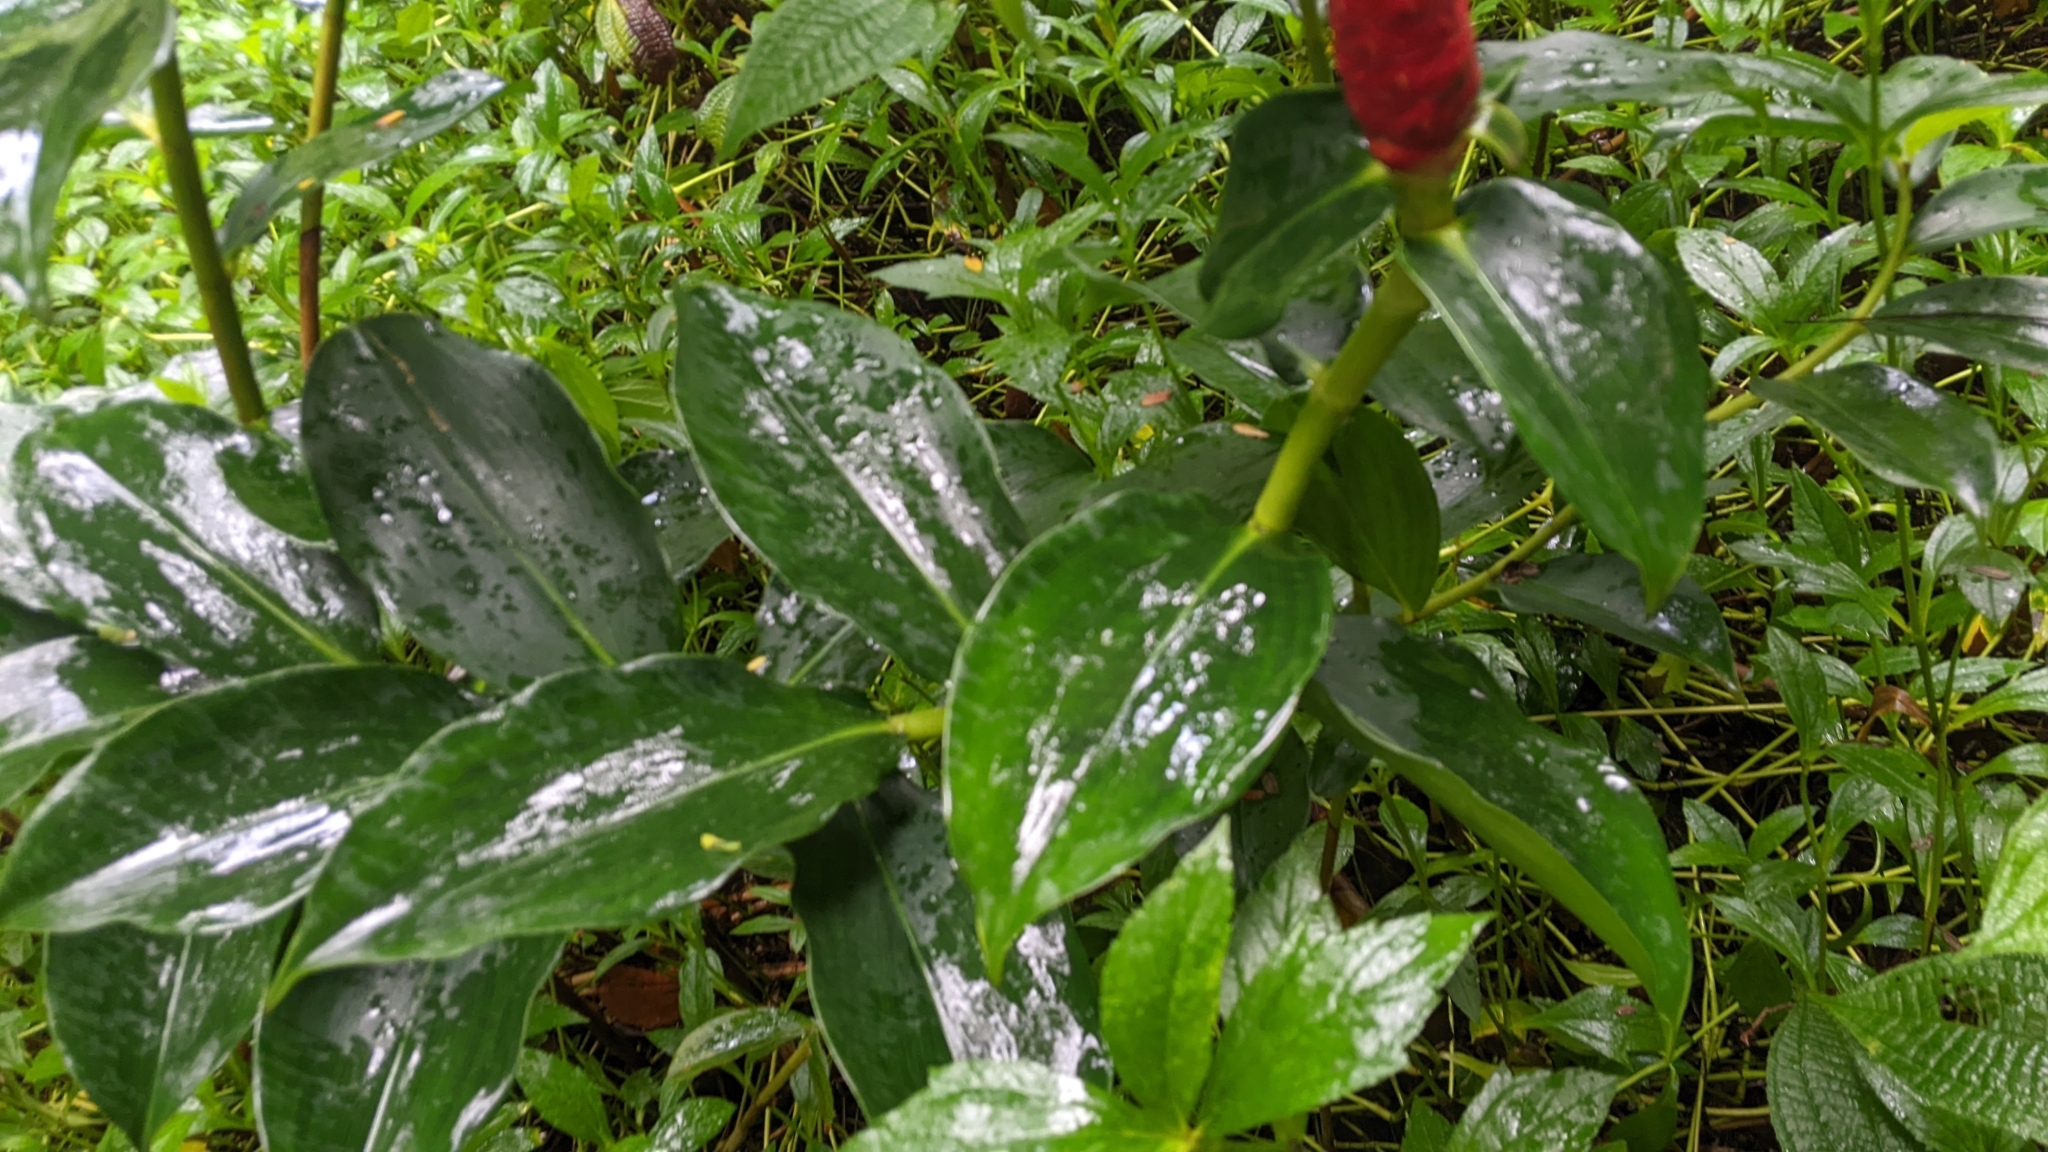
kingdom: Plantae
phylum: Tracheophyta
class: Liliopsida
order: Zingiberales
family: Costaceae
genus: Costus
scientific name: Costus woodsonii
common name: Scarlet spiral-ginger
